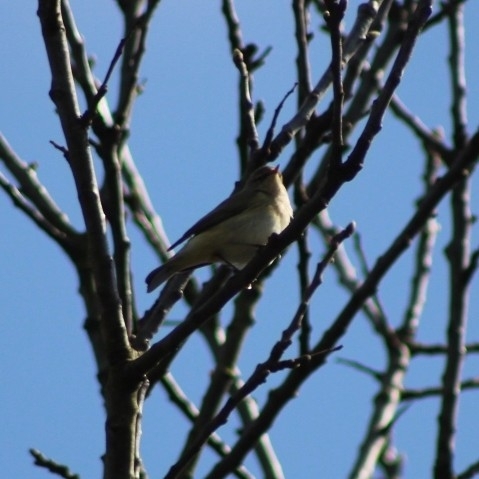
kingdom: Animalia
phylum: Chordata
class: Aves
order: Passeriformes
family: Phylloscopidae
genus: Phylloscopus
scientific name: Phylloscopus collybita
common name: Common chiffchaff
